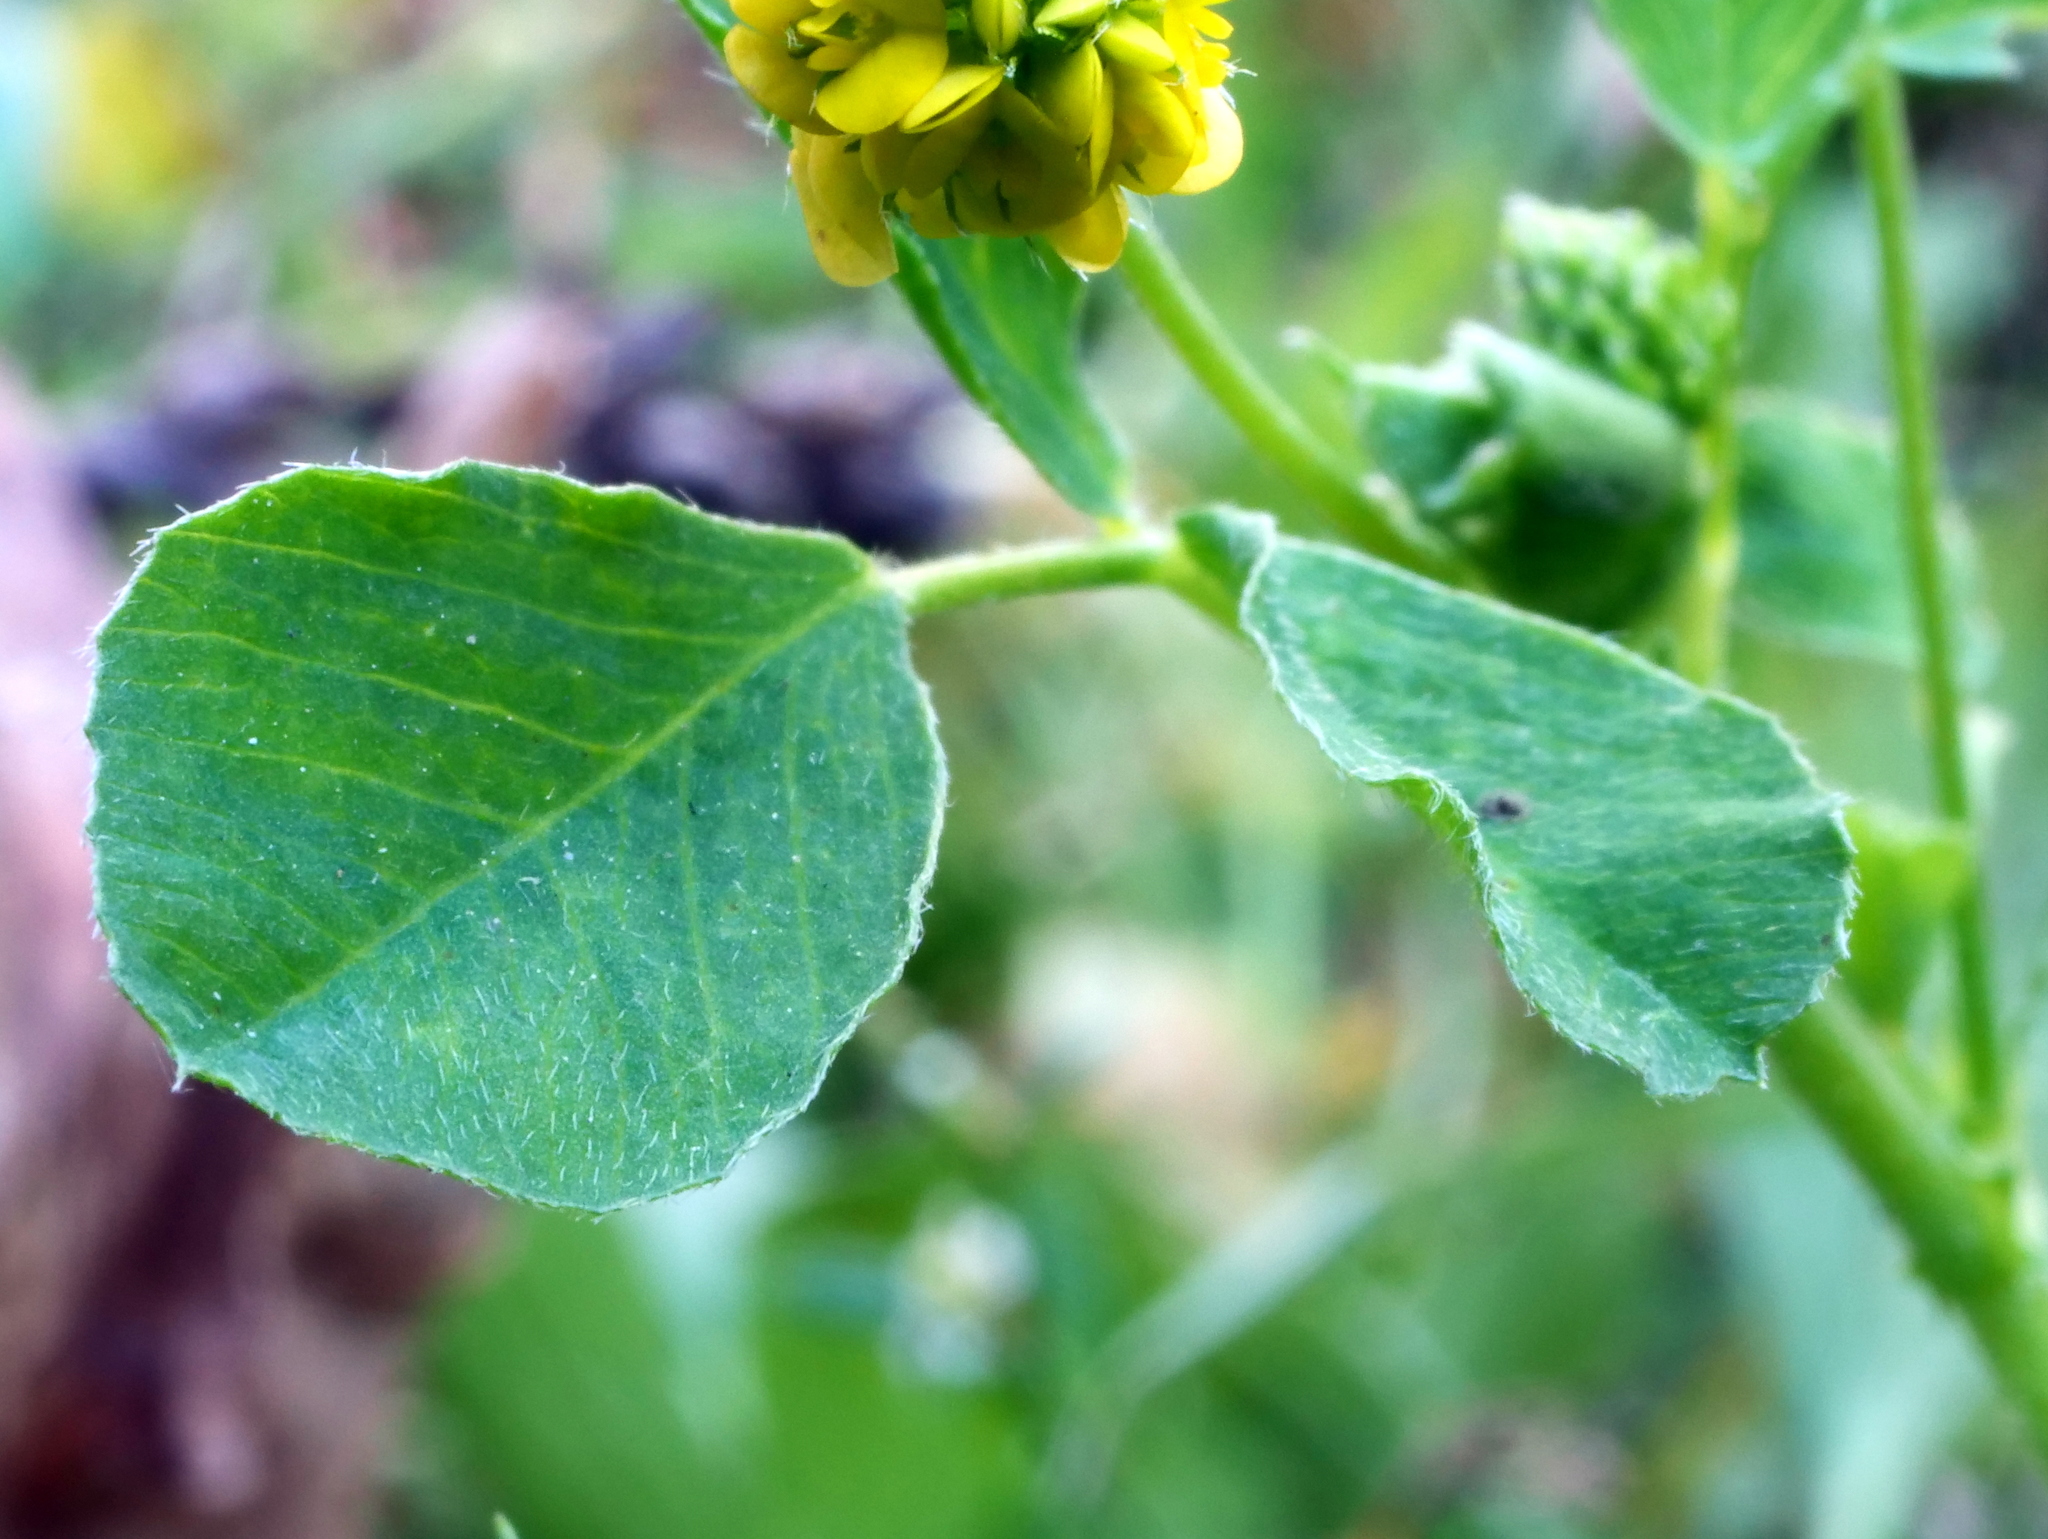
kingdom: Plantae
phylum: Tracheophyta
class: Magnoliopsida
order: Fabales
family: Fabaceae
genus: Medicago
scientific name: Medicago lupulina
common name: Black medick
